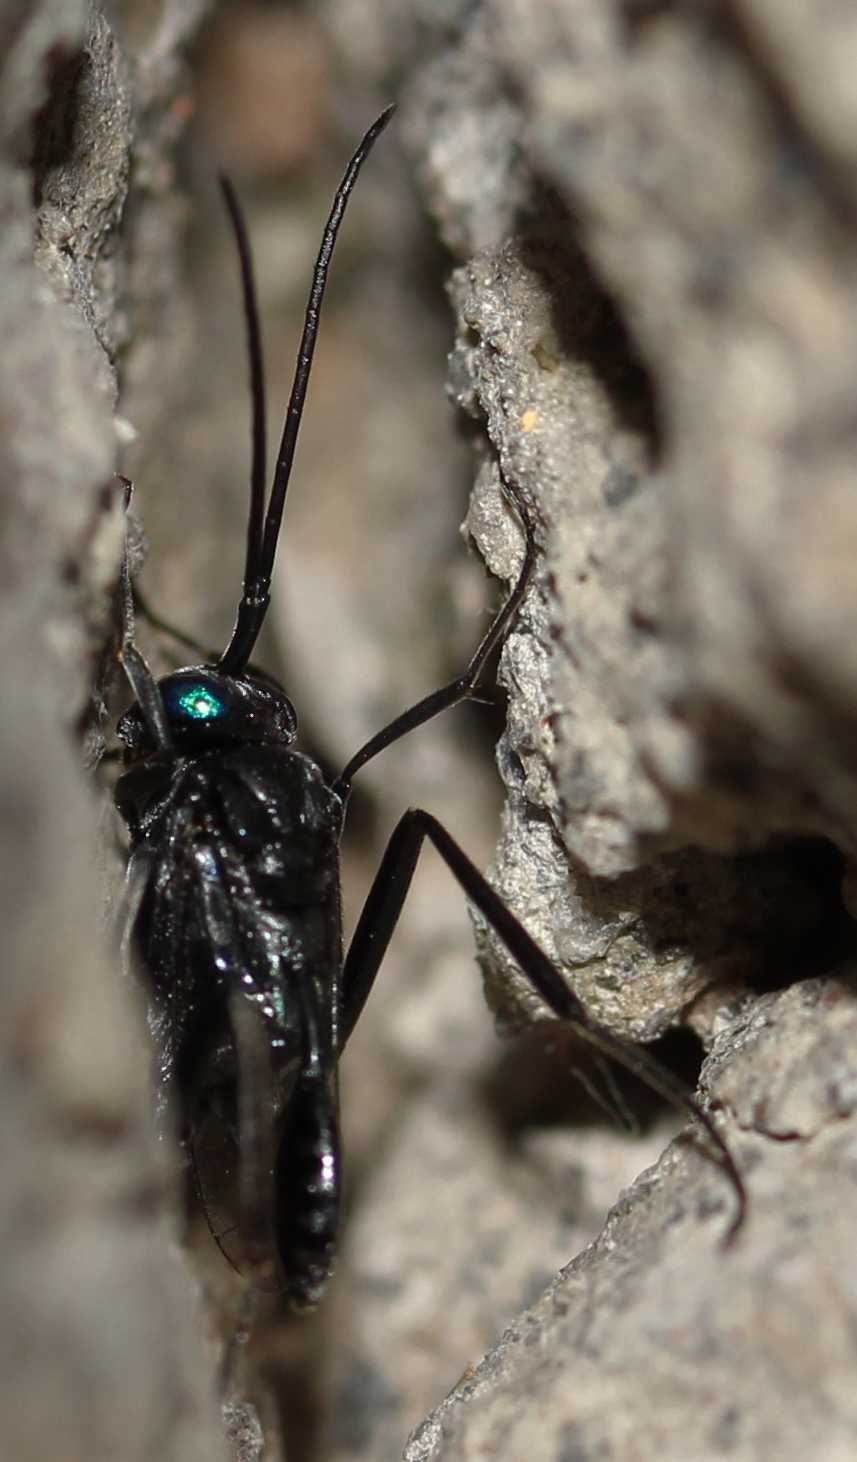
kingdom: Animalia
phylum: Arthropoda
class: Insecta
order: Hymenoptera
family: Evaniidae
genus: Evania
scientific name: Evania appendigaster
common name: Ensign wasp
